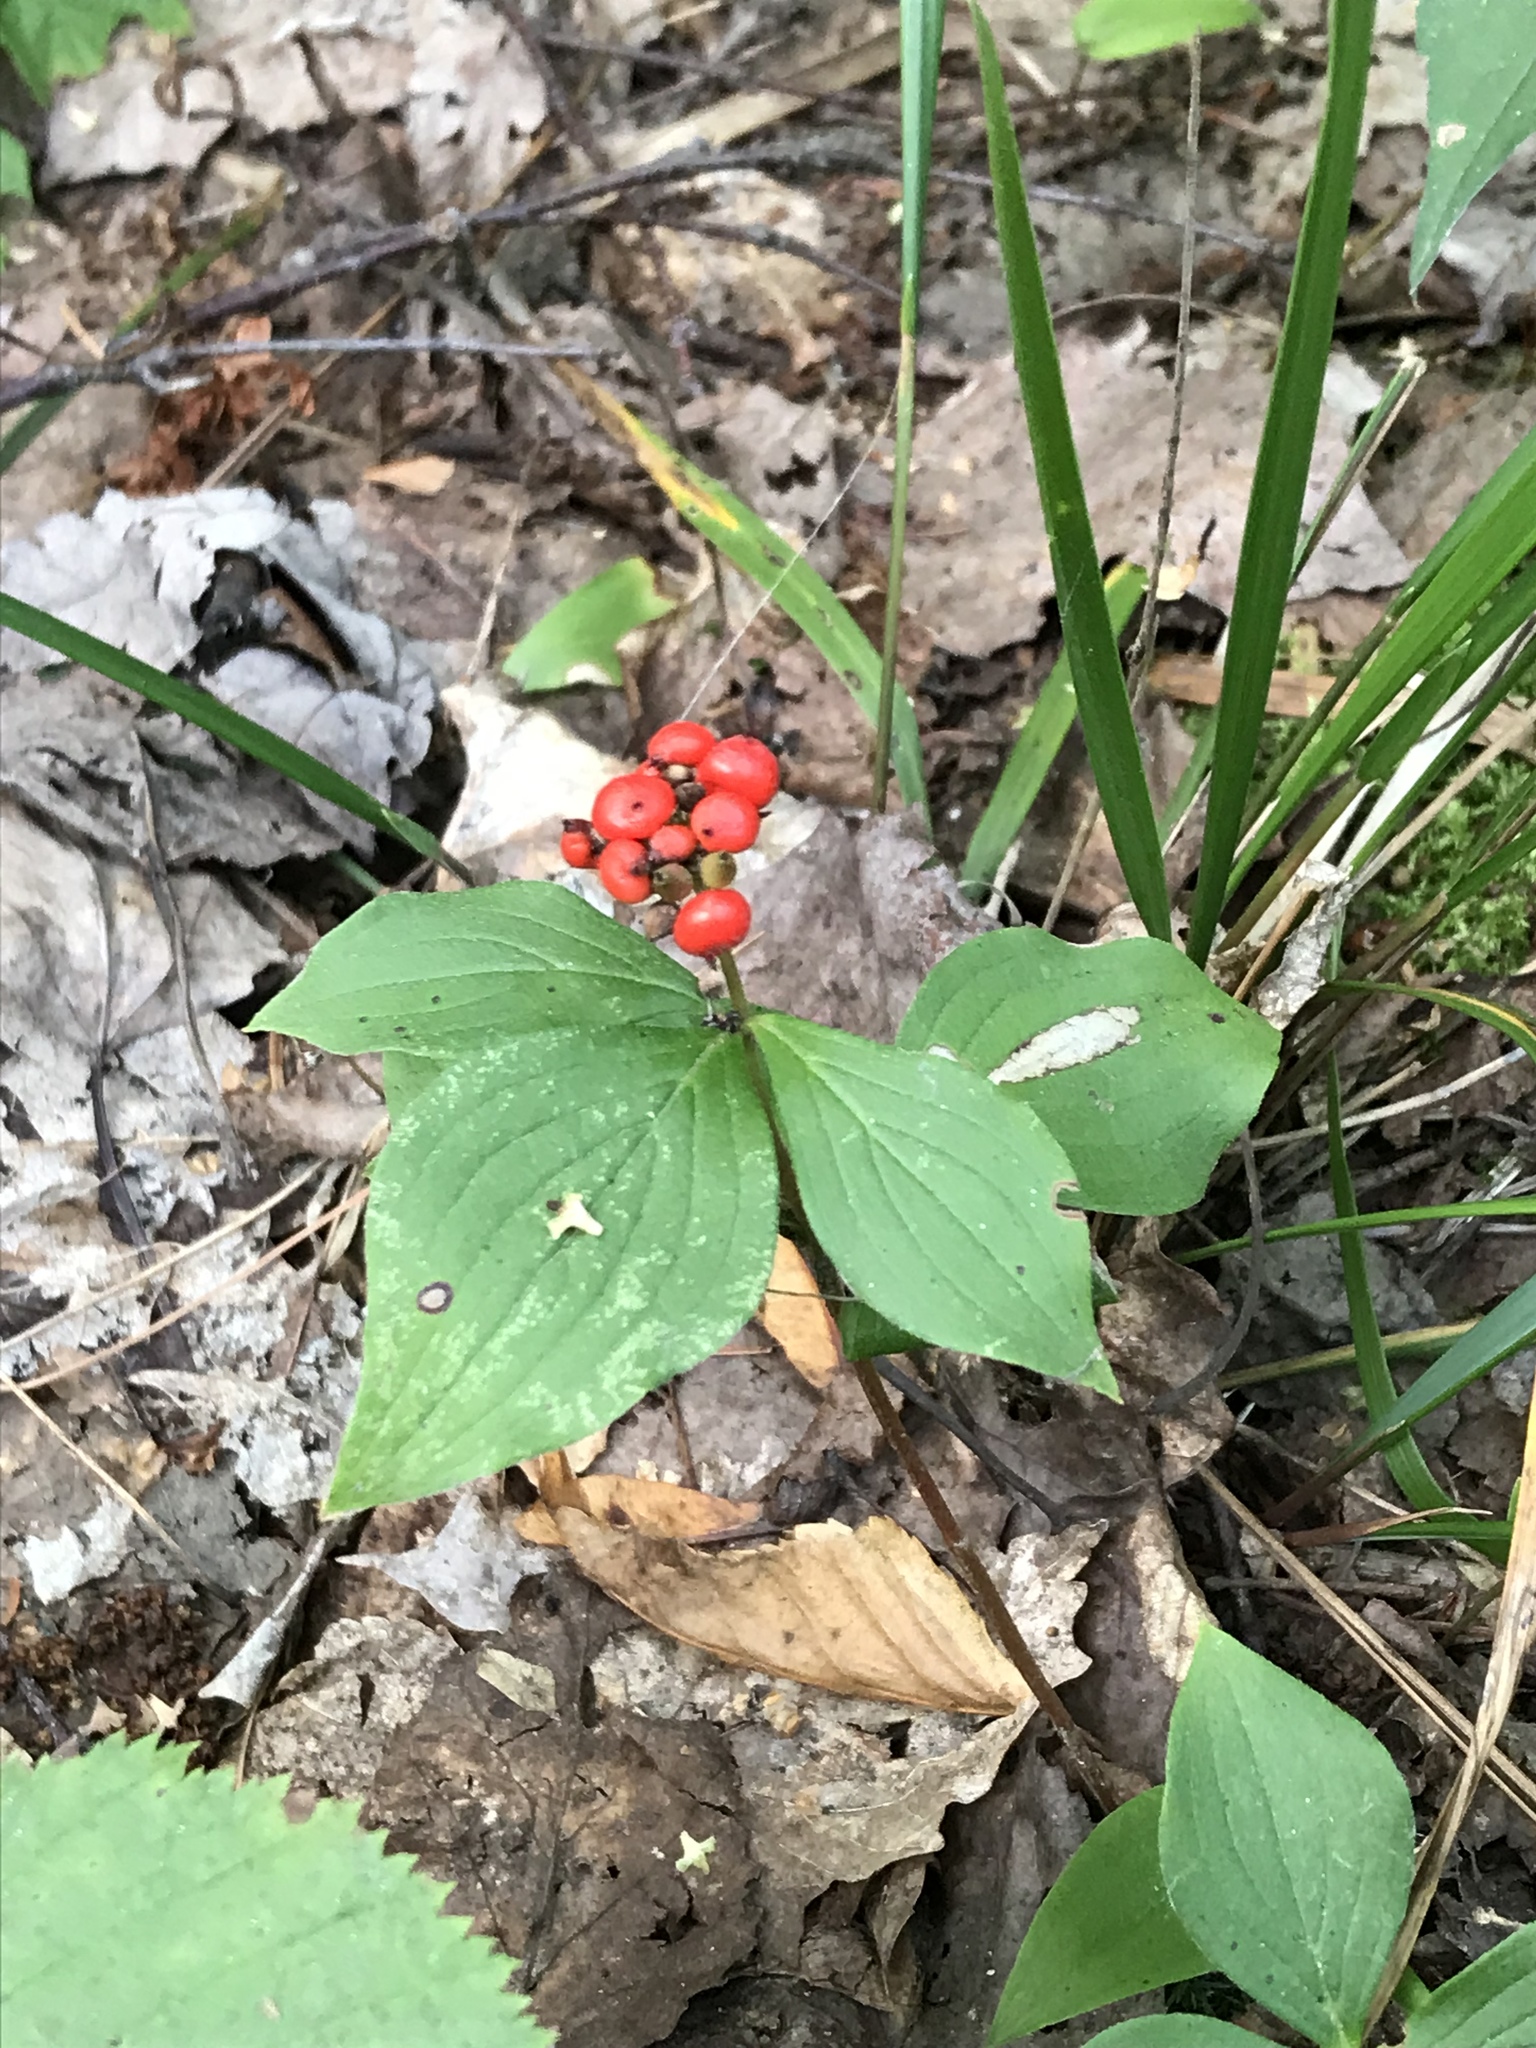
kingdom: Plantae
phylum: Tracheophyta
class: Magnoliopsida
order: Cornales
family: Cornaceae
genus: Cornus
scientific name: Cornus canadensis
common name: Creeping dogwood
